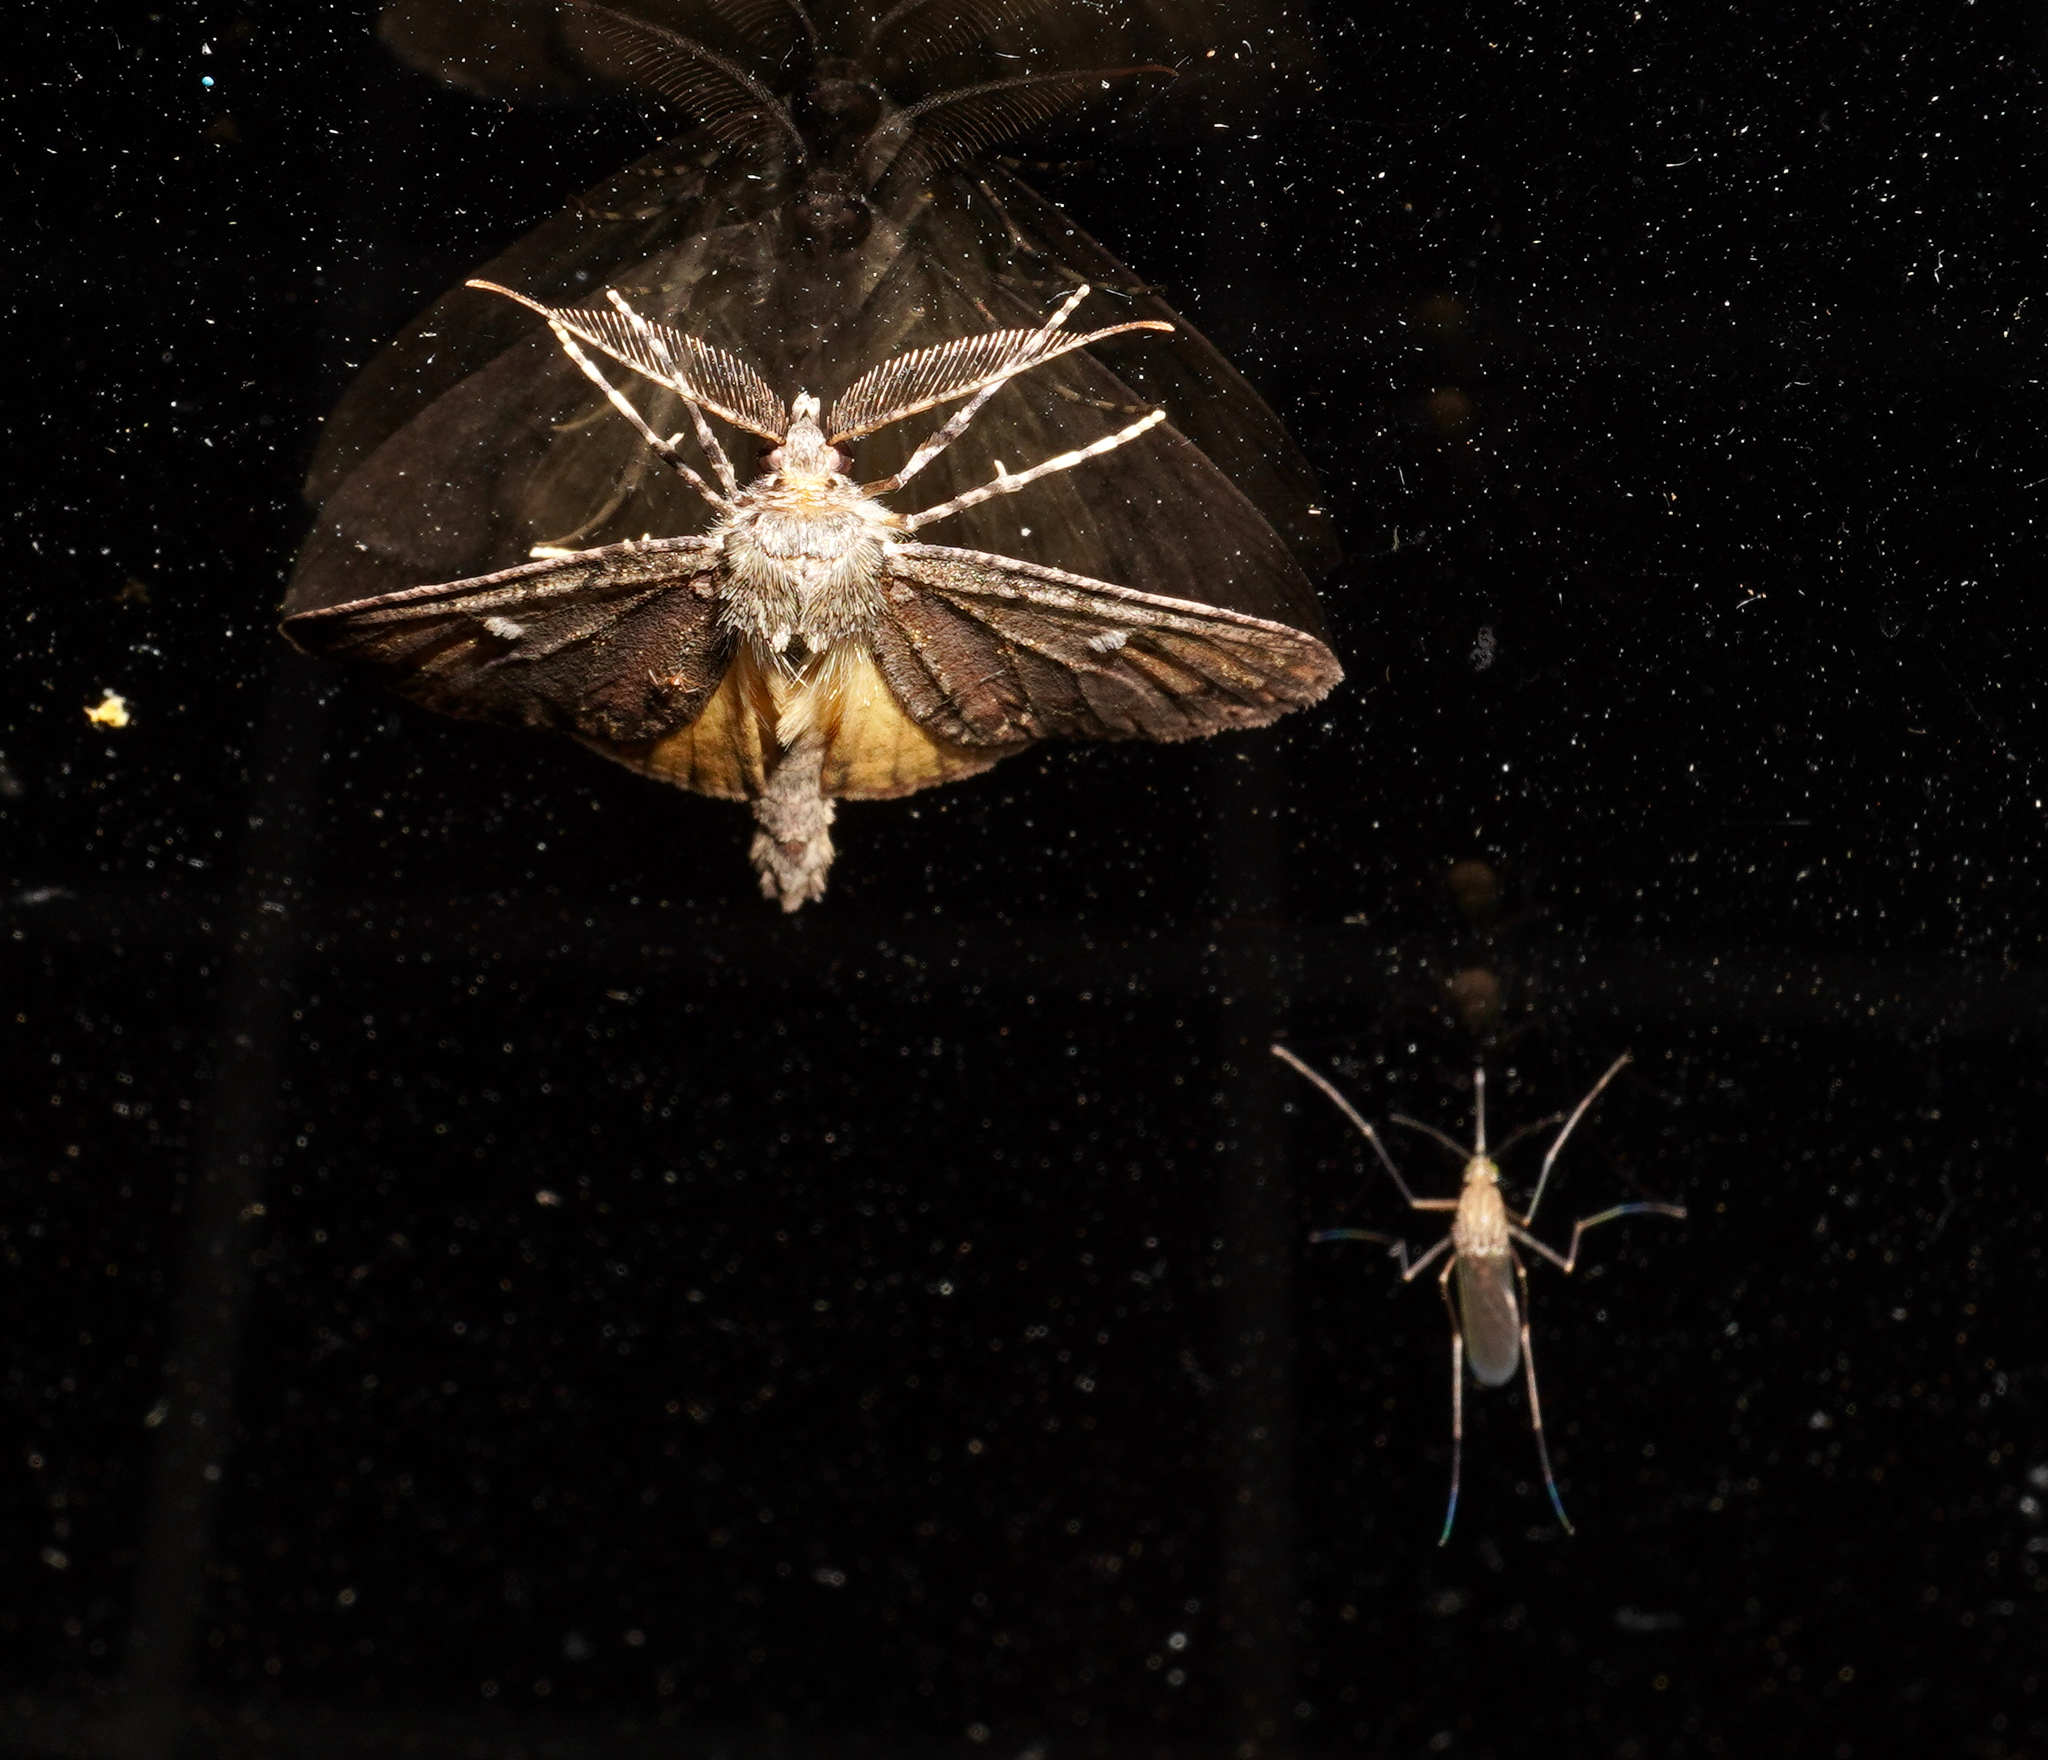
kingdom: Animalia
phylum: Arthropoda
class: Insecta
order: Lepidoptera
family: Geometridae
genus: Pseudocoremia
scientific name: Pseudocoremia suavis
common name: Common forest looper
